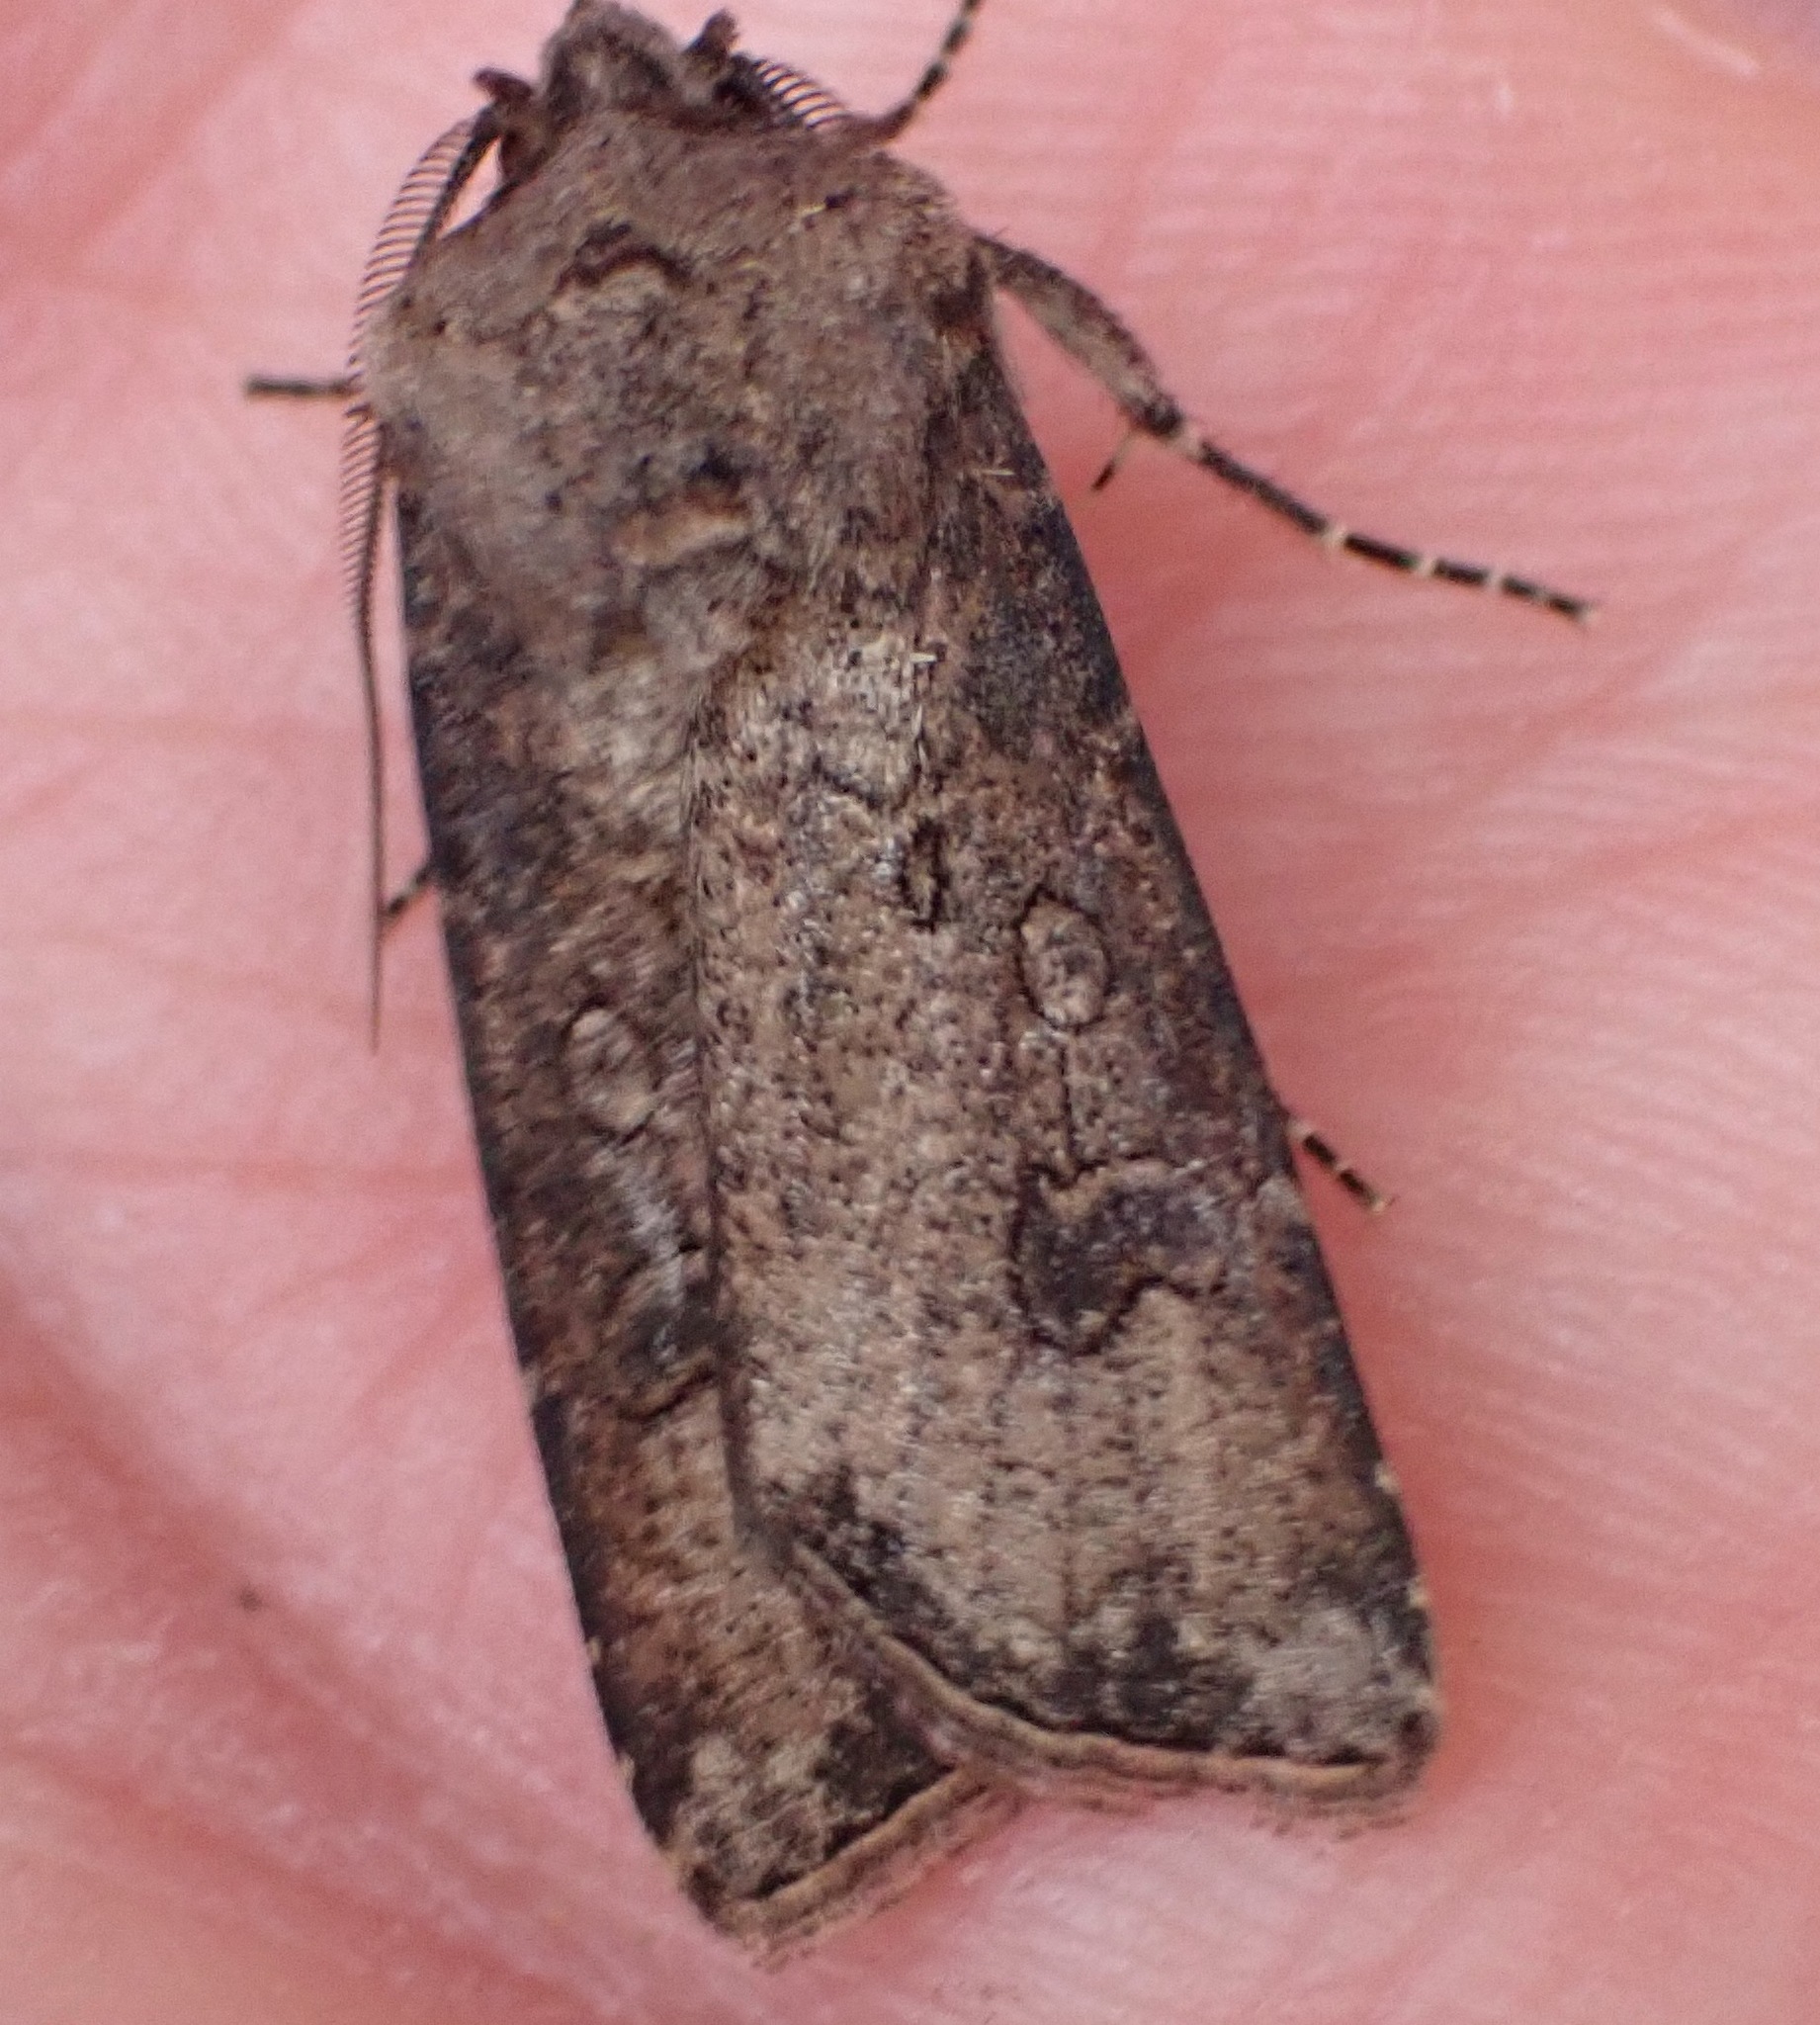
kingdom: Animalia
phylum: Arthropoda
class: Insecta
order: Lepidoptera
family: Noctuidae
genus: Agrotis
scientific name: Agrotis segetum
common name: Turnip moth
